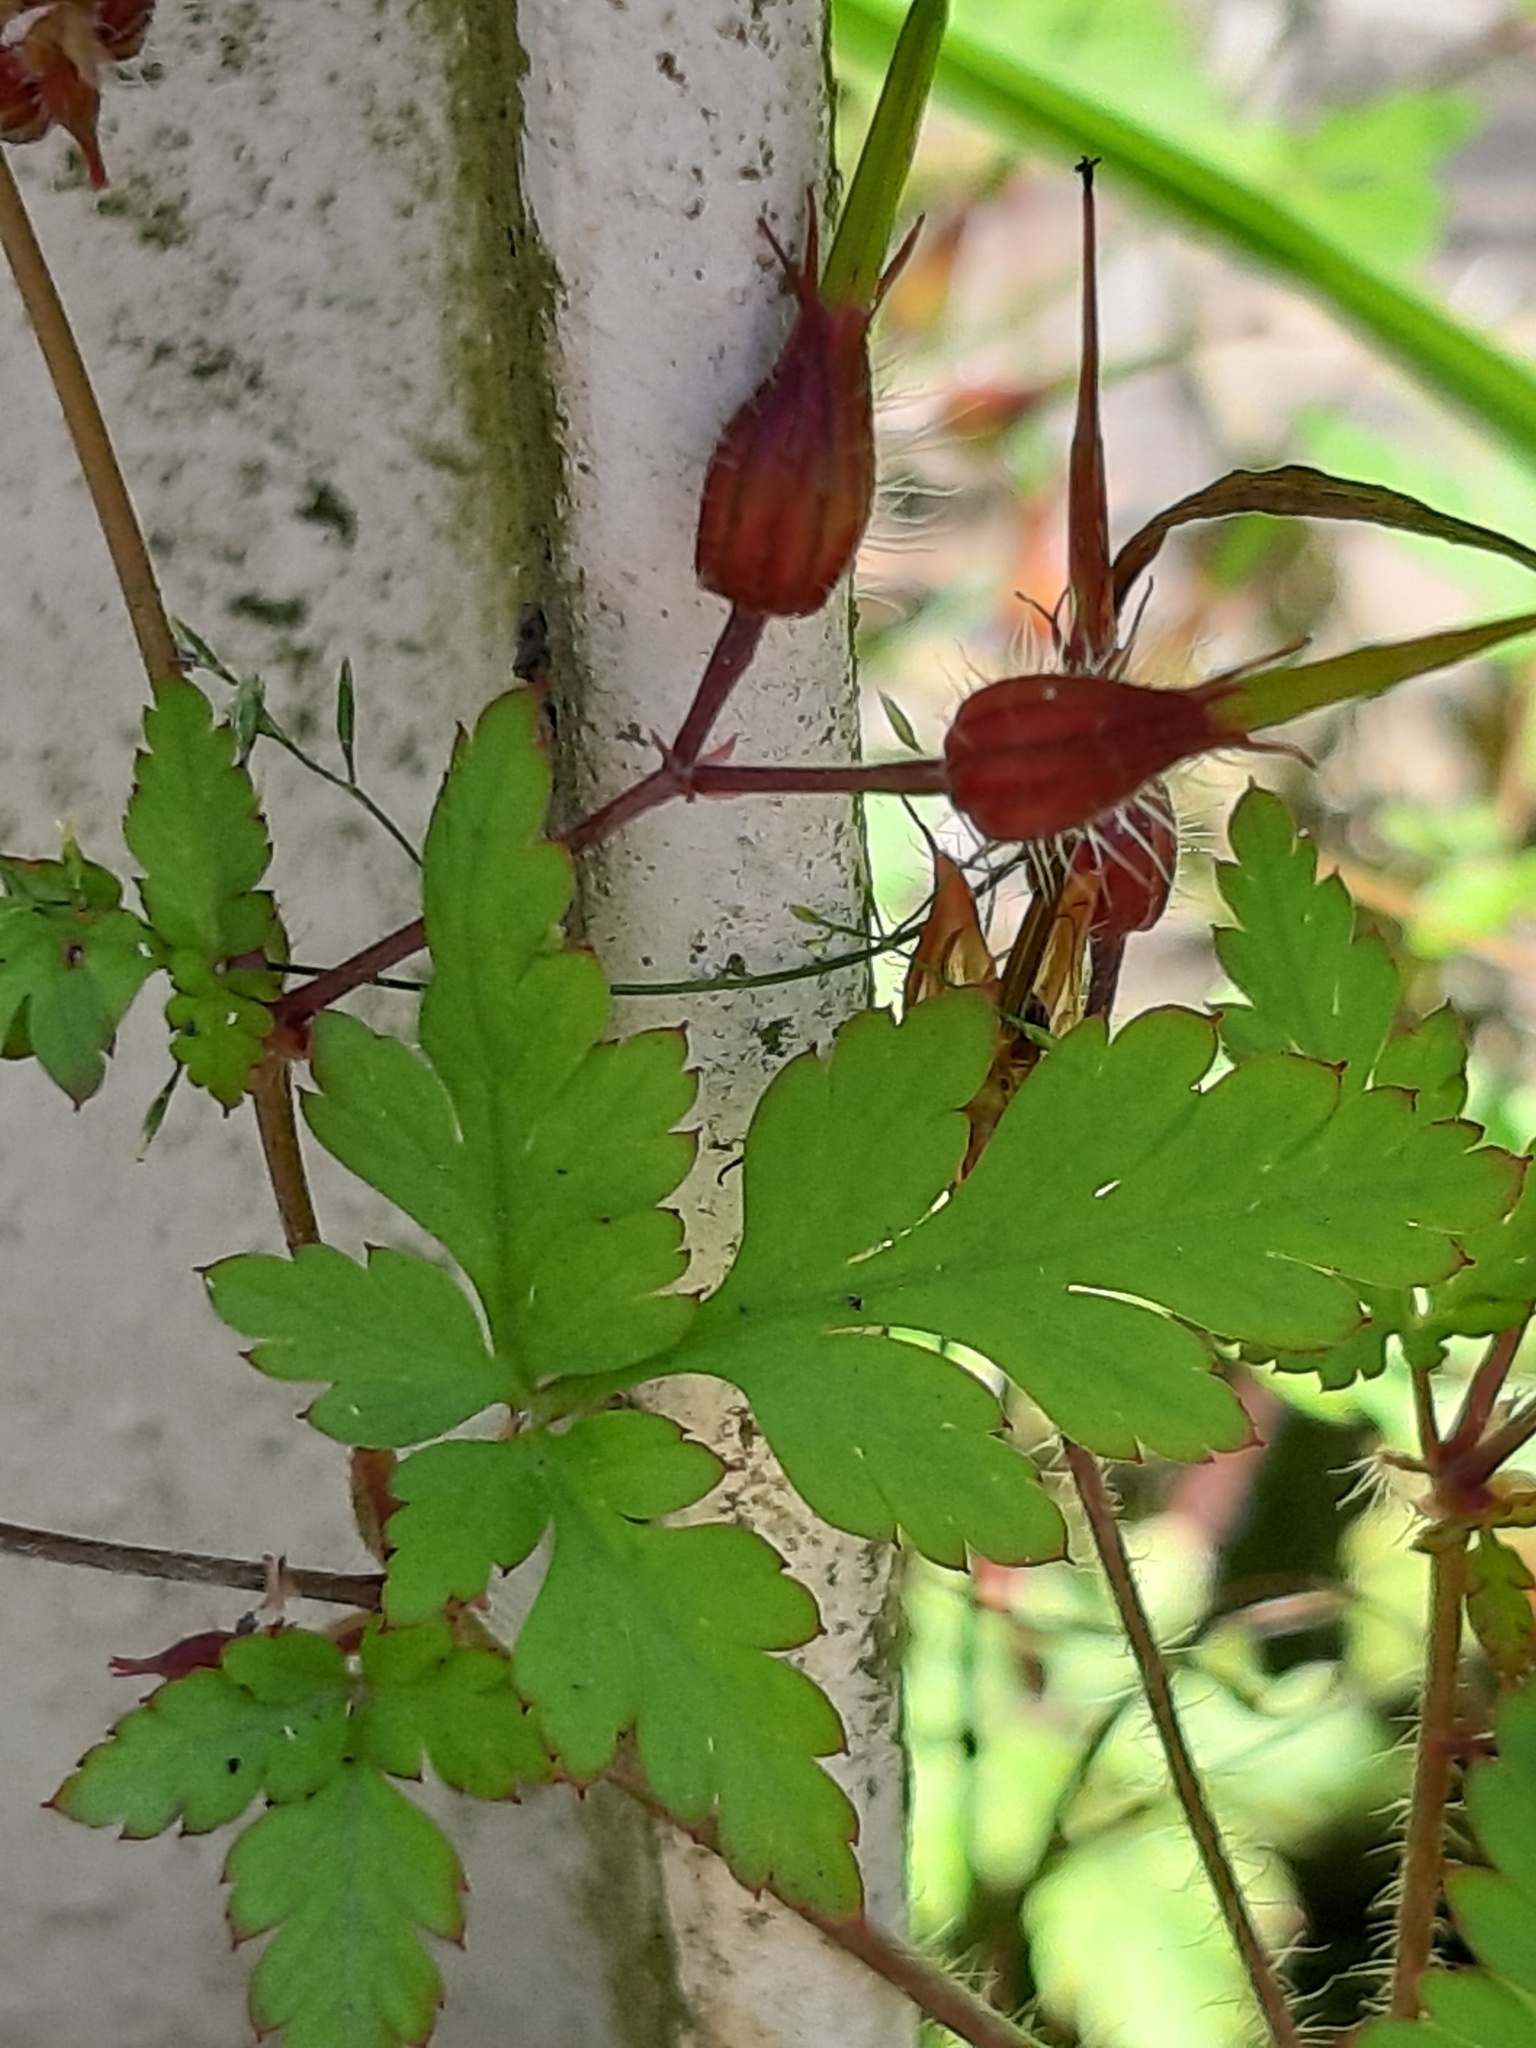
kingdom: Plantae
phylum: Tracheophyta
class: Magnoliopsida
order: Geraniales
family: Geraniaceae
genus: Geranium
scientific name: Geranium robertianum
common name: Herb-robert
